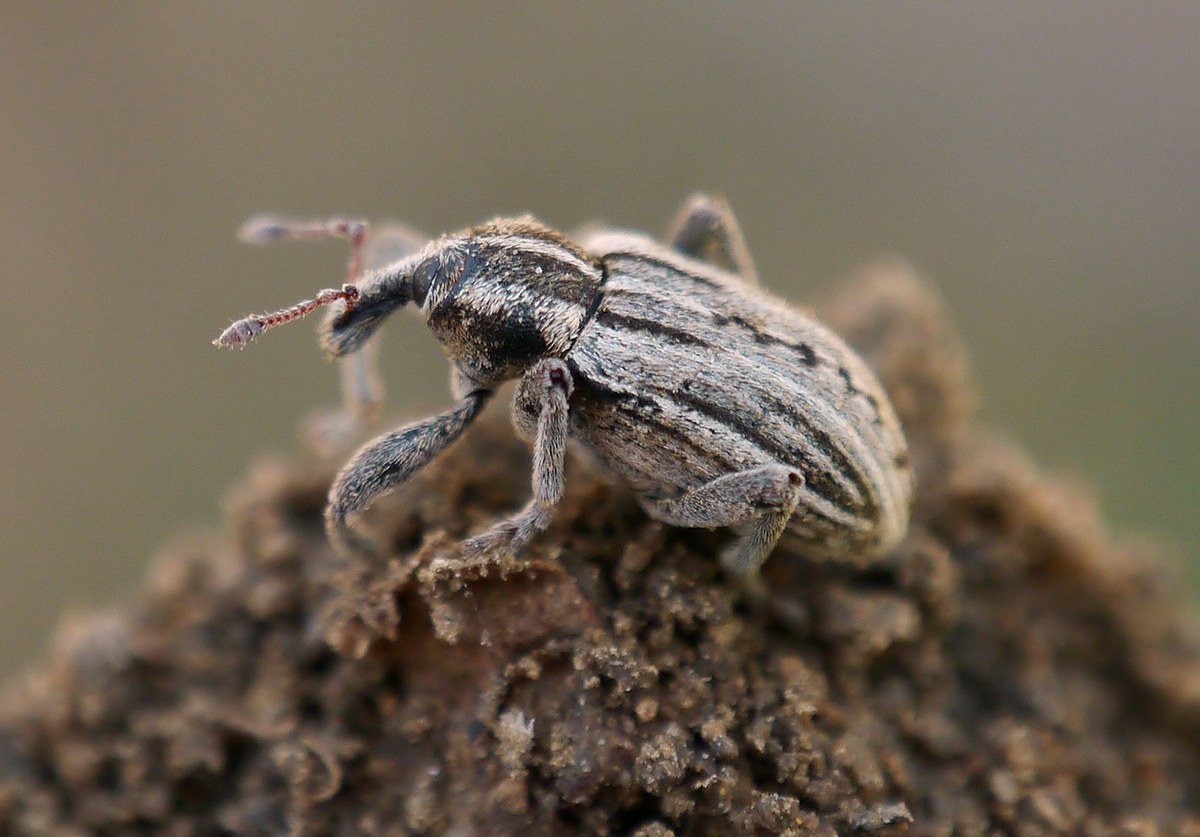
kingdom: Animalia
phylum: Arthropoda
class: Insecta
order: Coleoptera
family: Curculionidae
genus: Hypera
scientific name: Hypera arator
